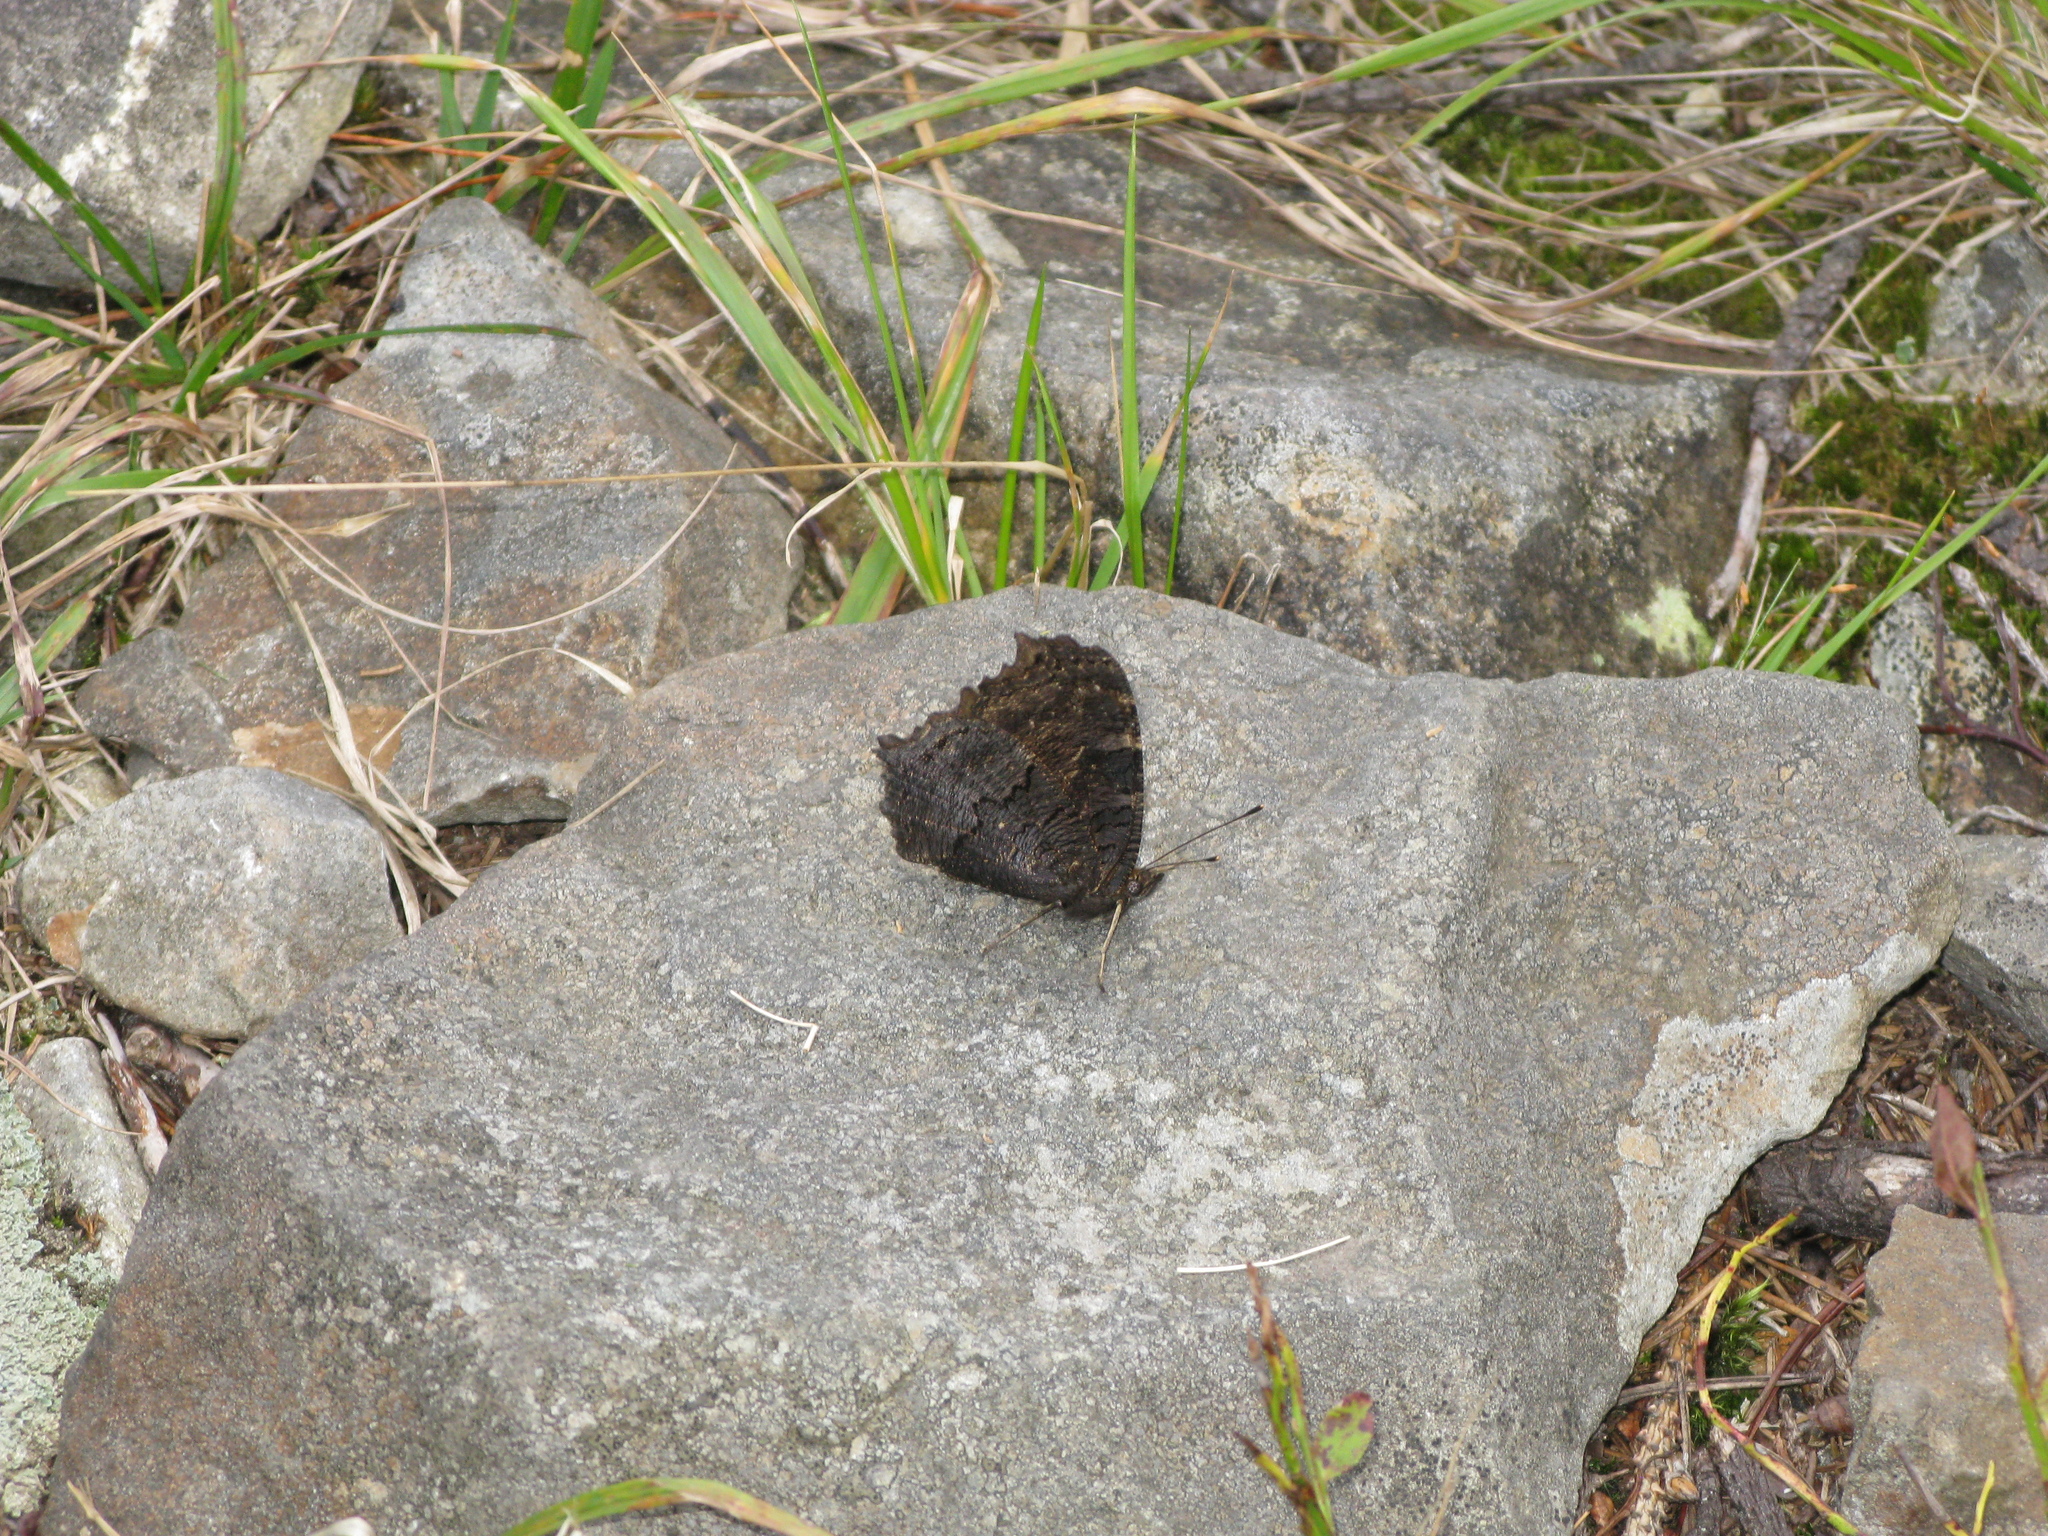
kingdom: Animalia
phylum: Arthropoda
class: Insecta
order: Lepidoptera
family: Nymphalidae
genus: Aglais
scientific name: Aglais io
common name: Peacock
